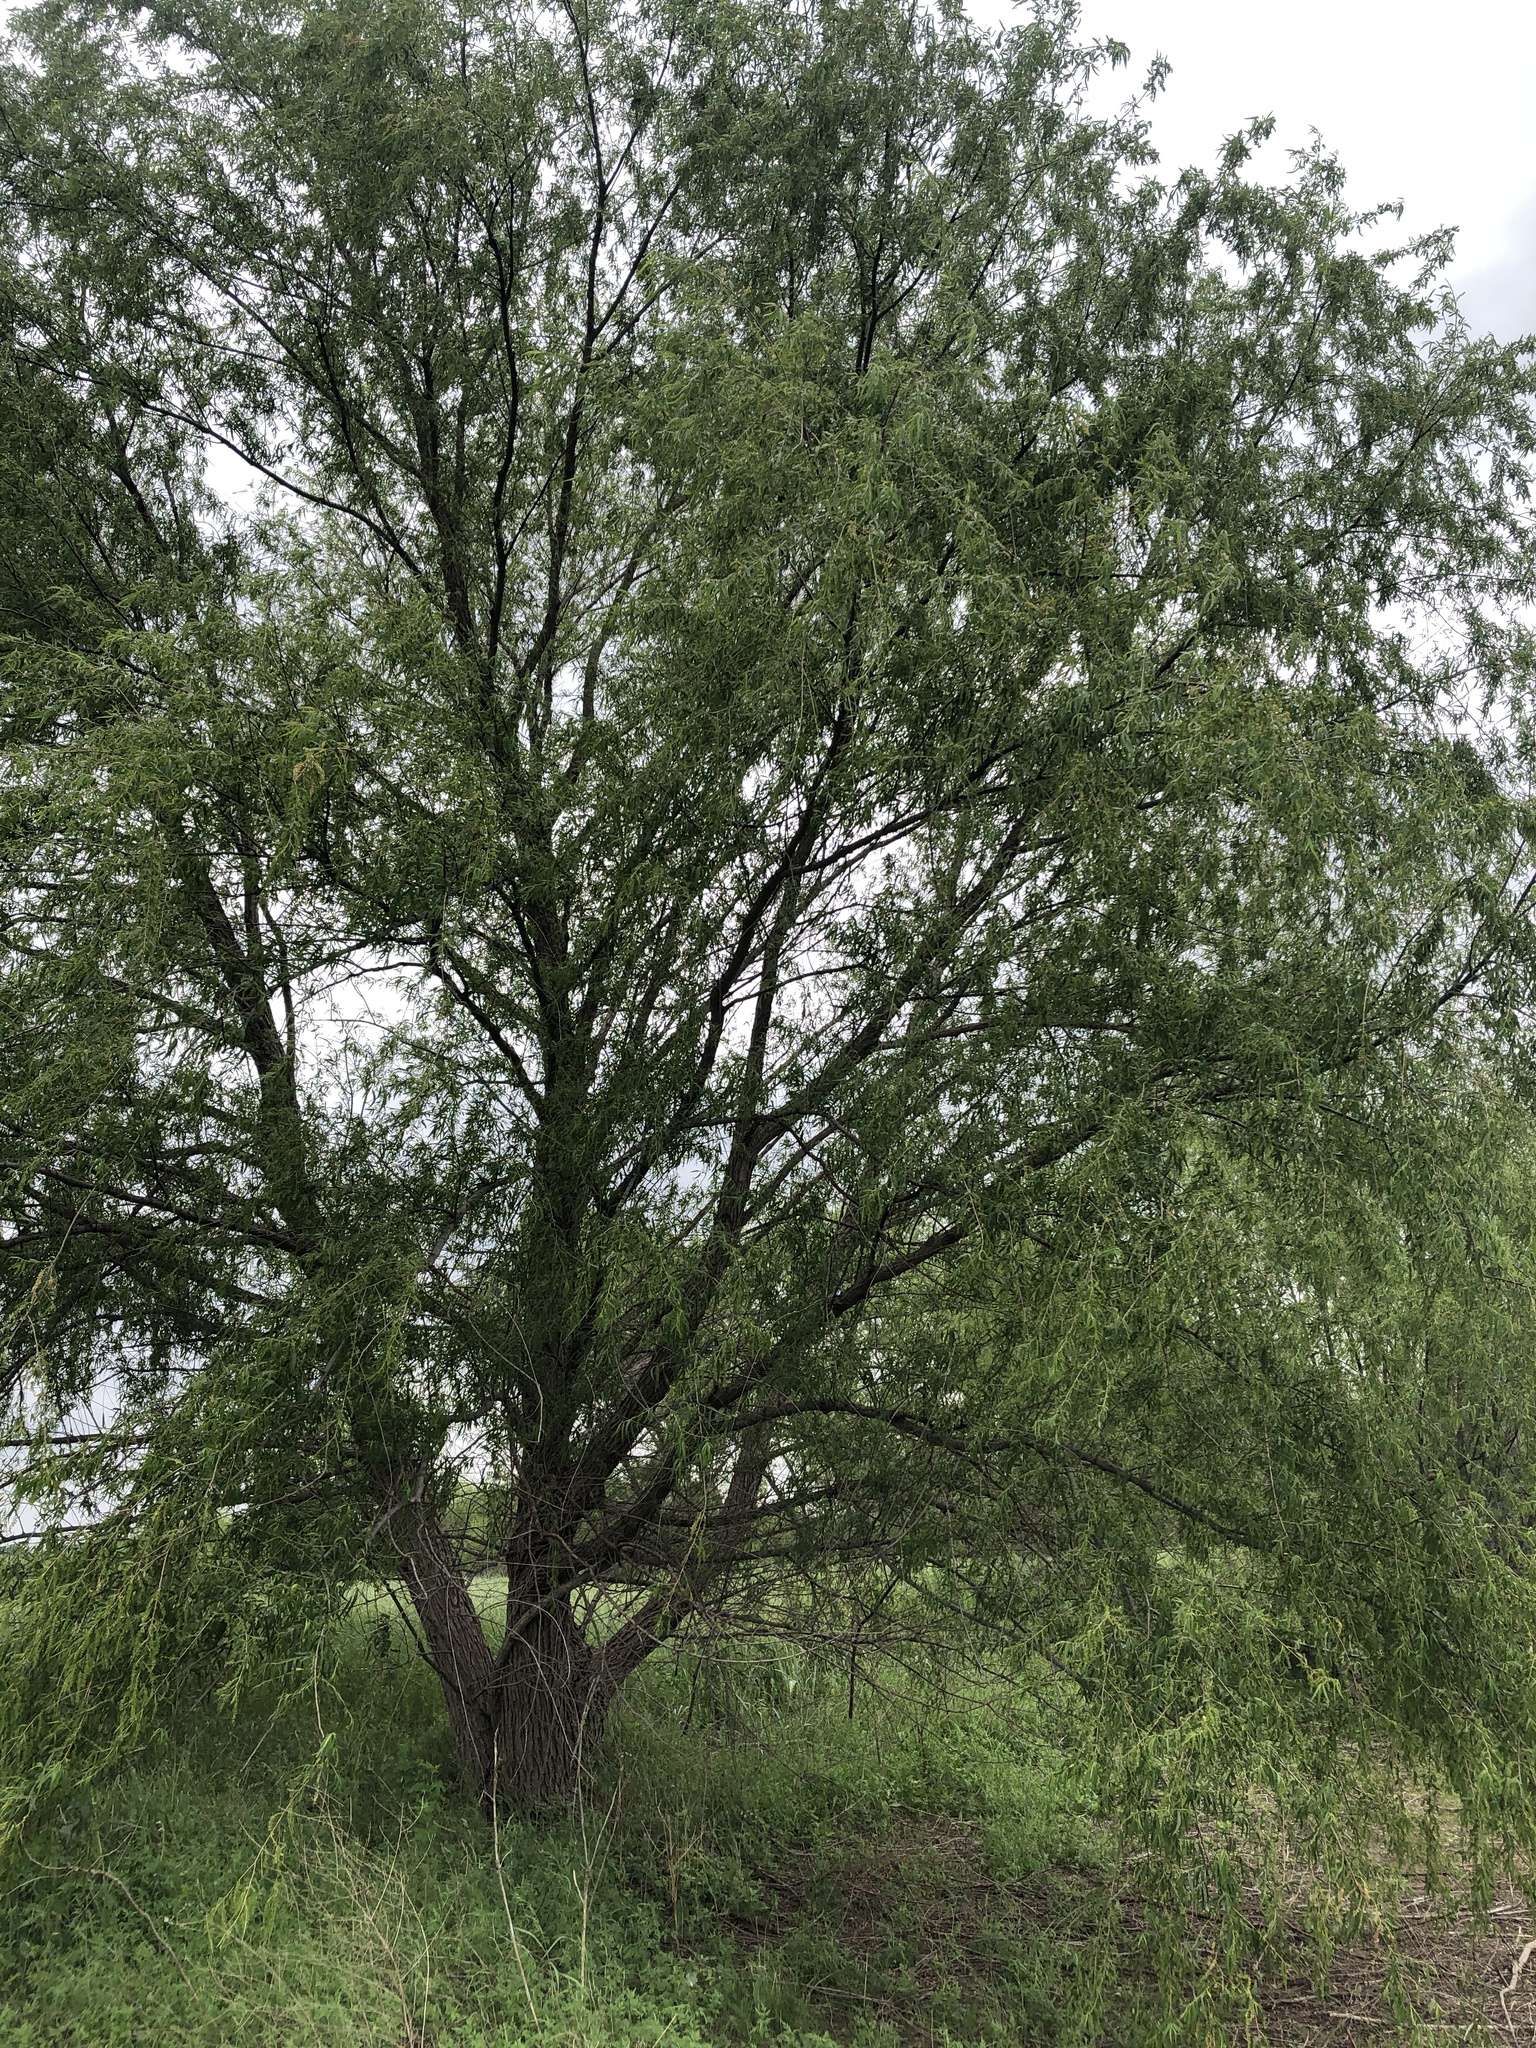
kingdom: Plantae
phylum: Tracheophyta
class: Magnoliopsida
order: Malpighiales
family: Salicaceae
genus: Salix
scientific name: Salix nigra
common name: Black willow
